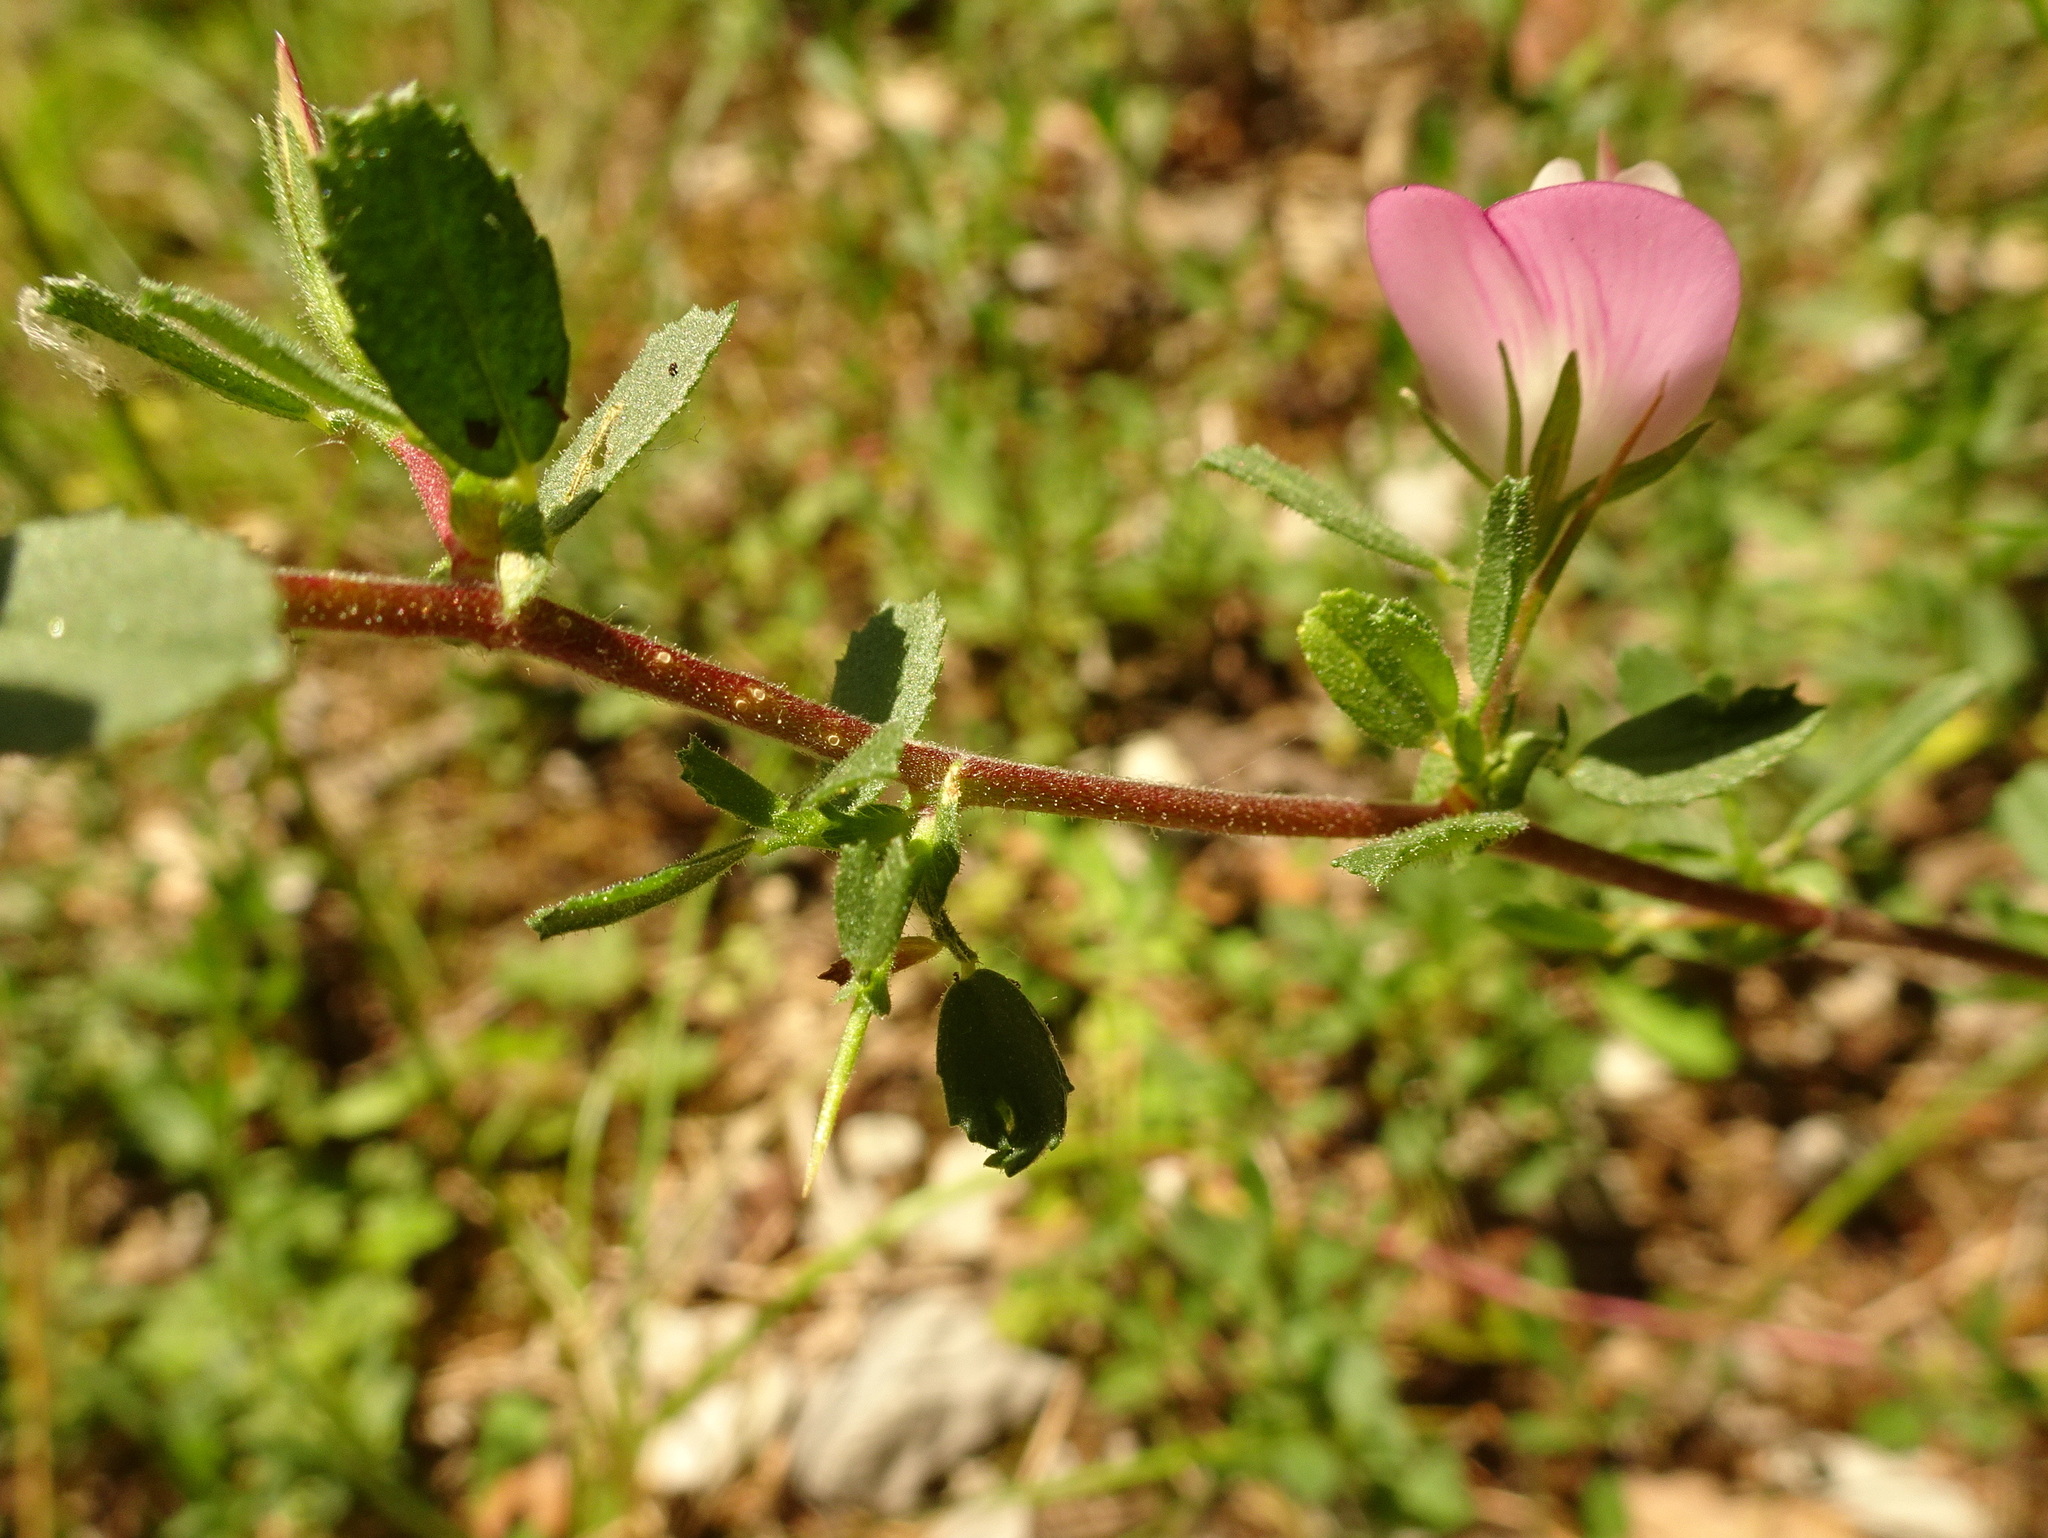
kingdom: Plantae
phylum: Tracheophyta
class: Magnoliopsida
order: Fabales
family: Fabaceae
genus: Ononis
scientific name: Ononis spinosa
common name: Spiny restharrow
